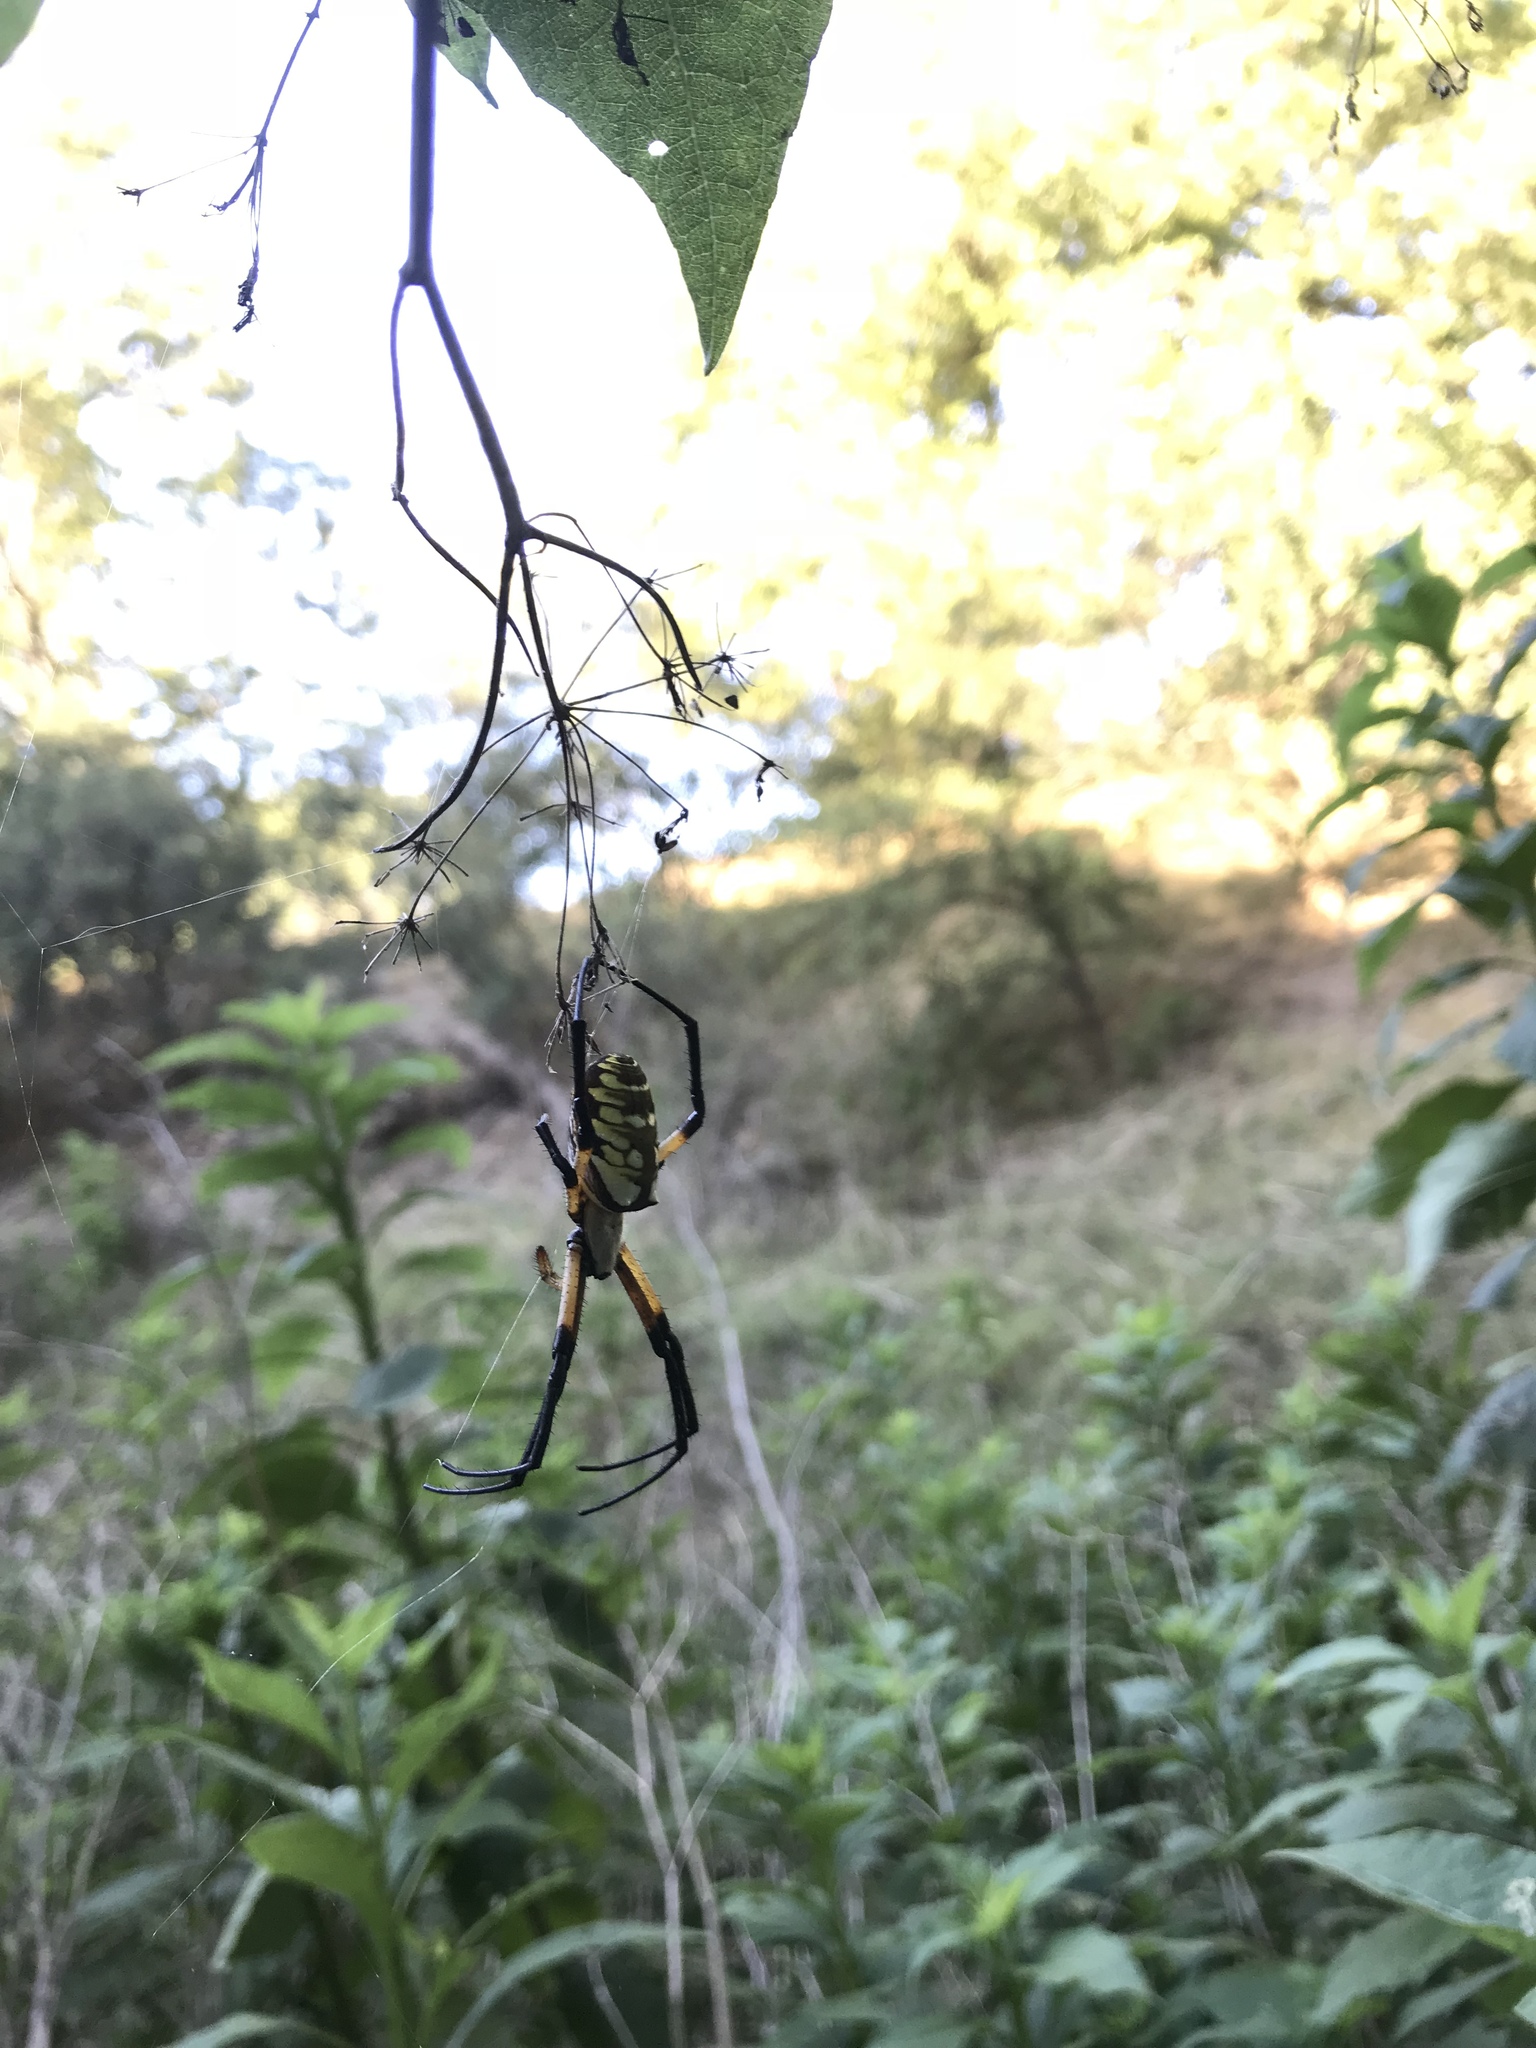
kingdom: Animalia
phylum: Arthropoda
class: Arachnida
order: Araneae
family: Araneidae
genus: Argiope
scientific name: Argiope aurantia
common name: Orb weavers
